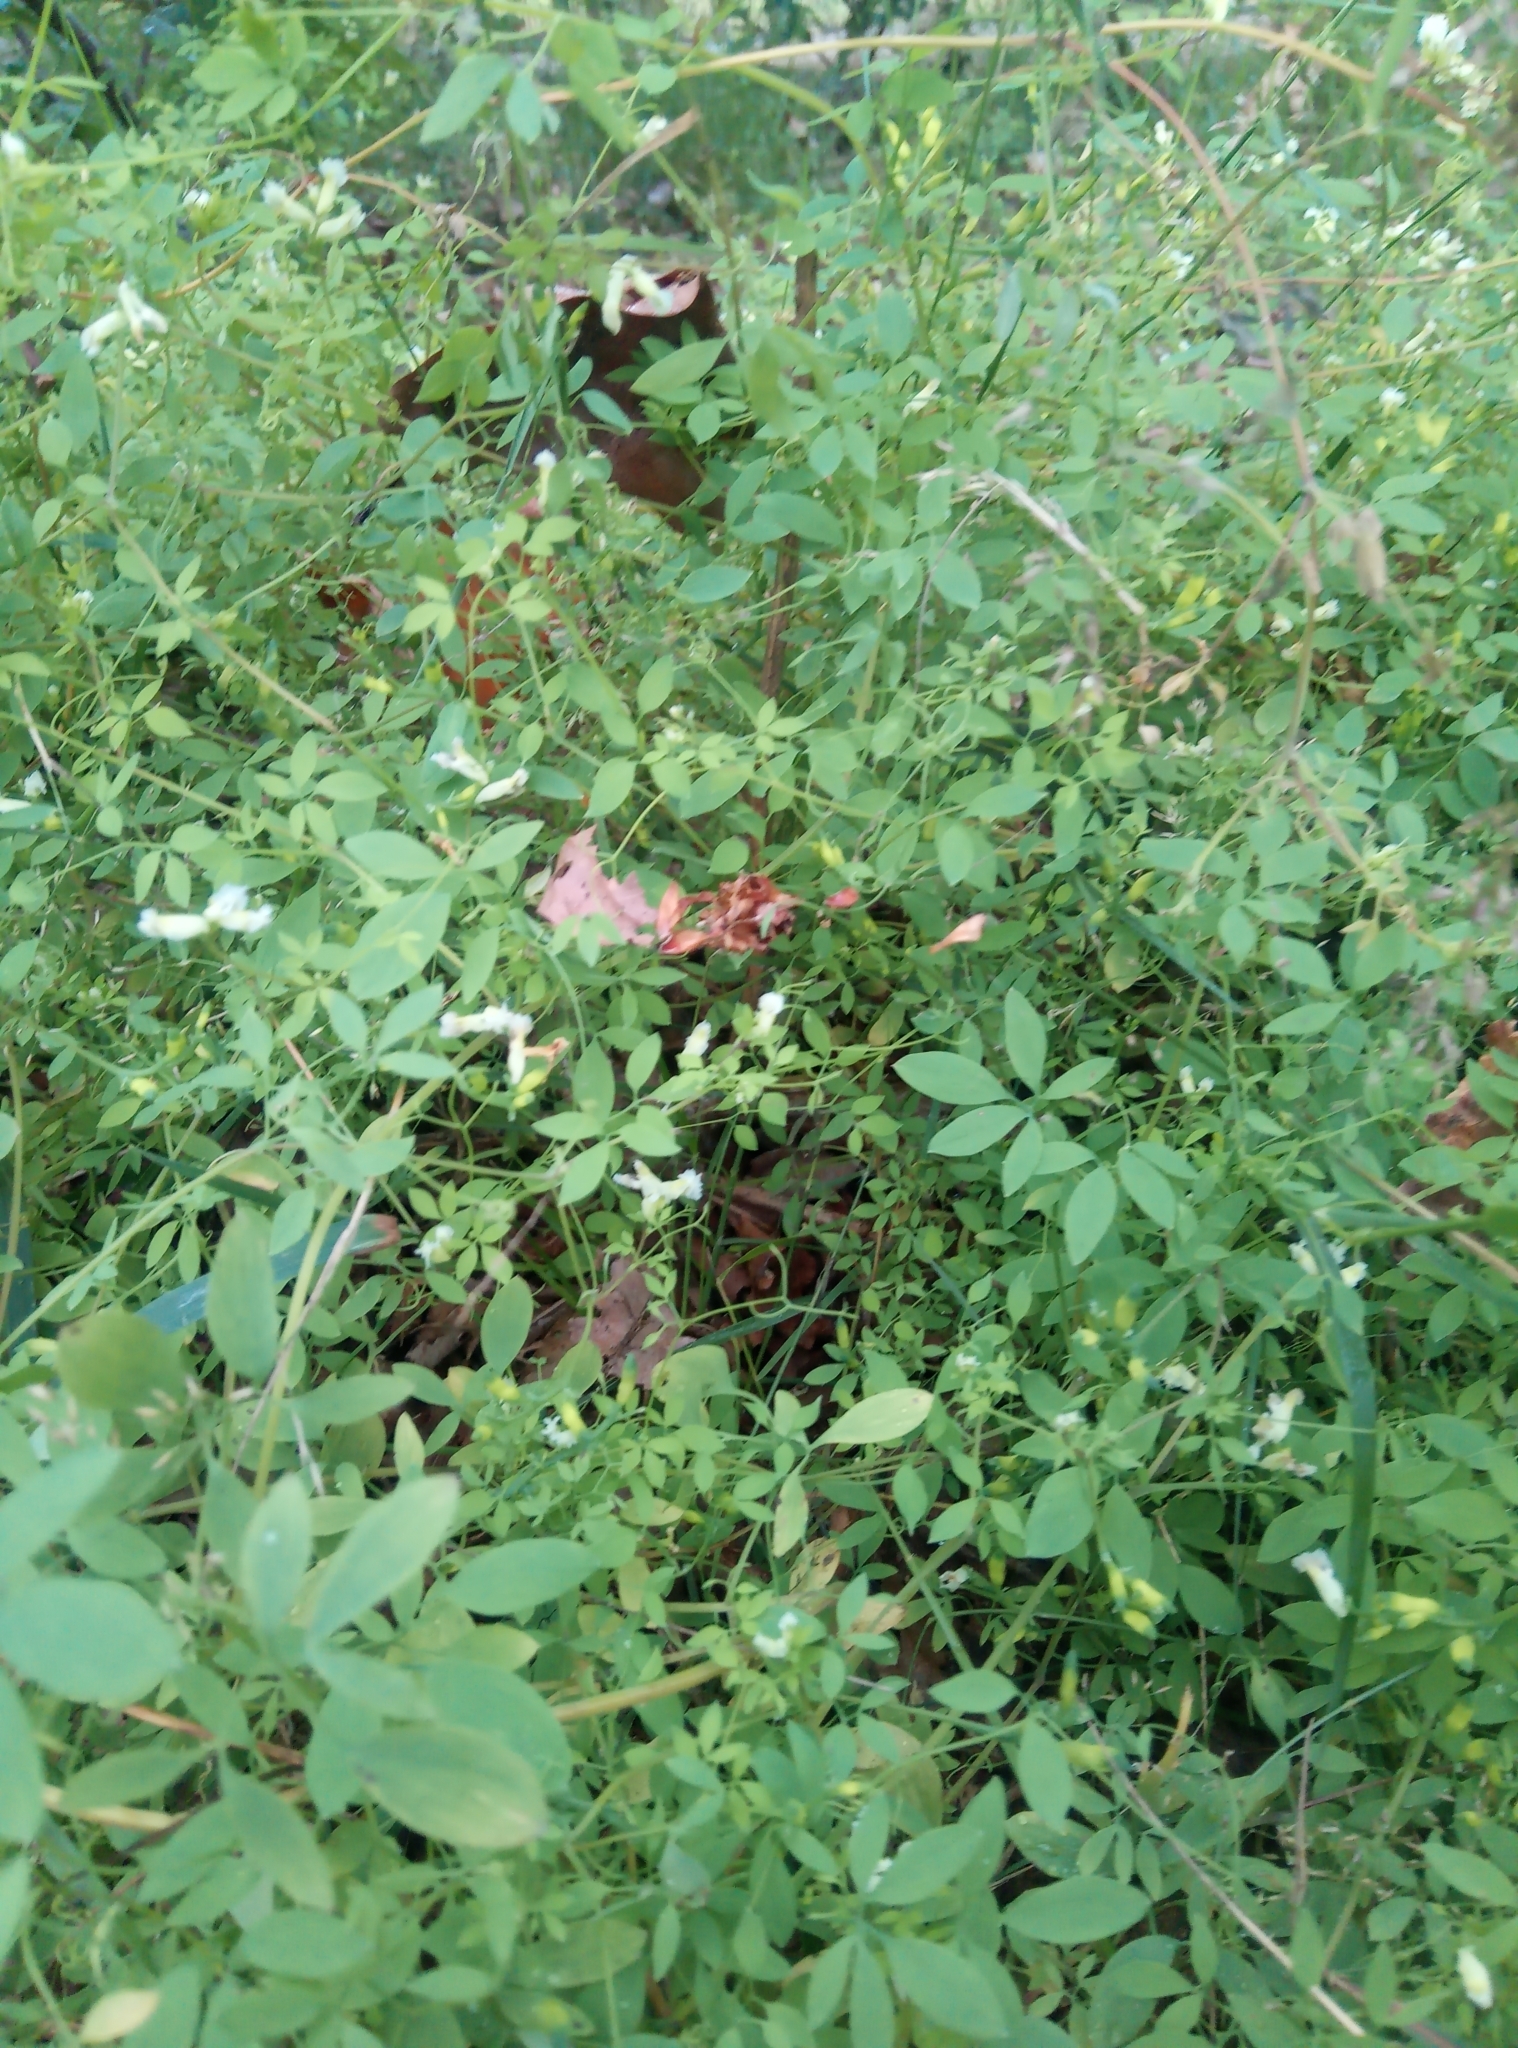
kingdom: Plantae
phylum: Tracheophyta
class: Magnoliopsida
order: Ranunculales
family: Papaveraceae
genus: Ceratocapnos
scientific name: Ceratocapnos claviculata
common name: Climbing corydalis
